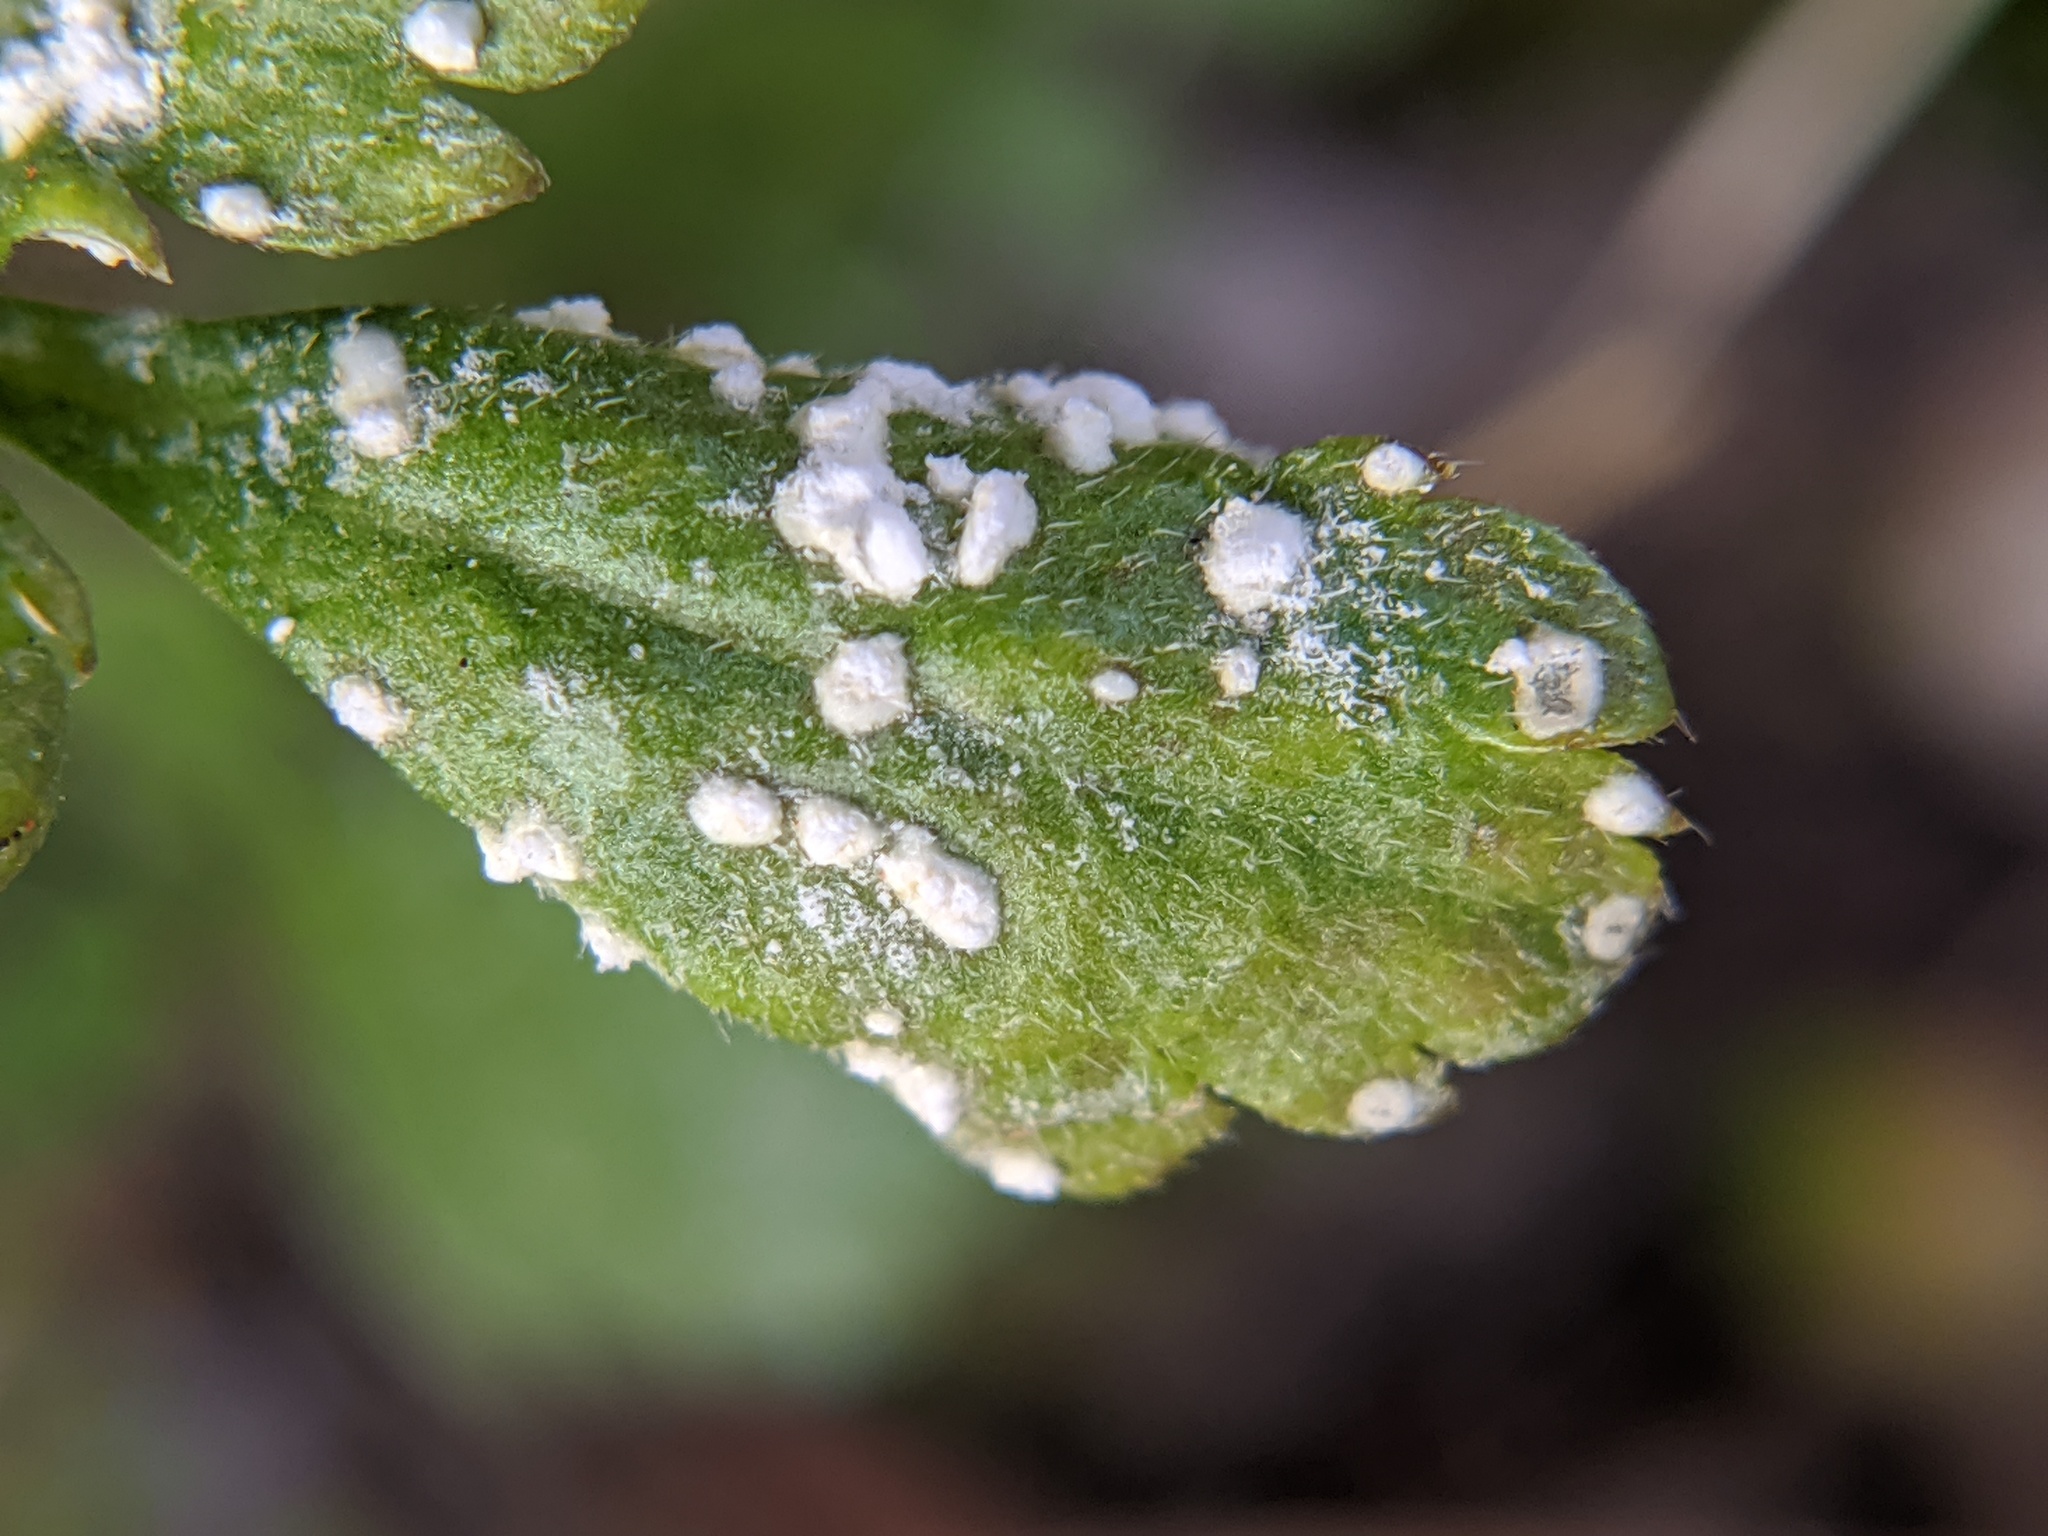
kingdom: Chromista
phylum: Oomycota
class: Peronosporea
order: Albuginales
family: Albuginaceae
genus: Albugo
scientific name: Albugo candida
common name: Crucifer white blister
